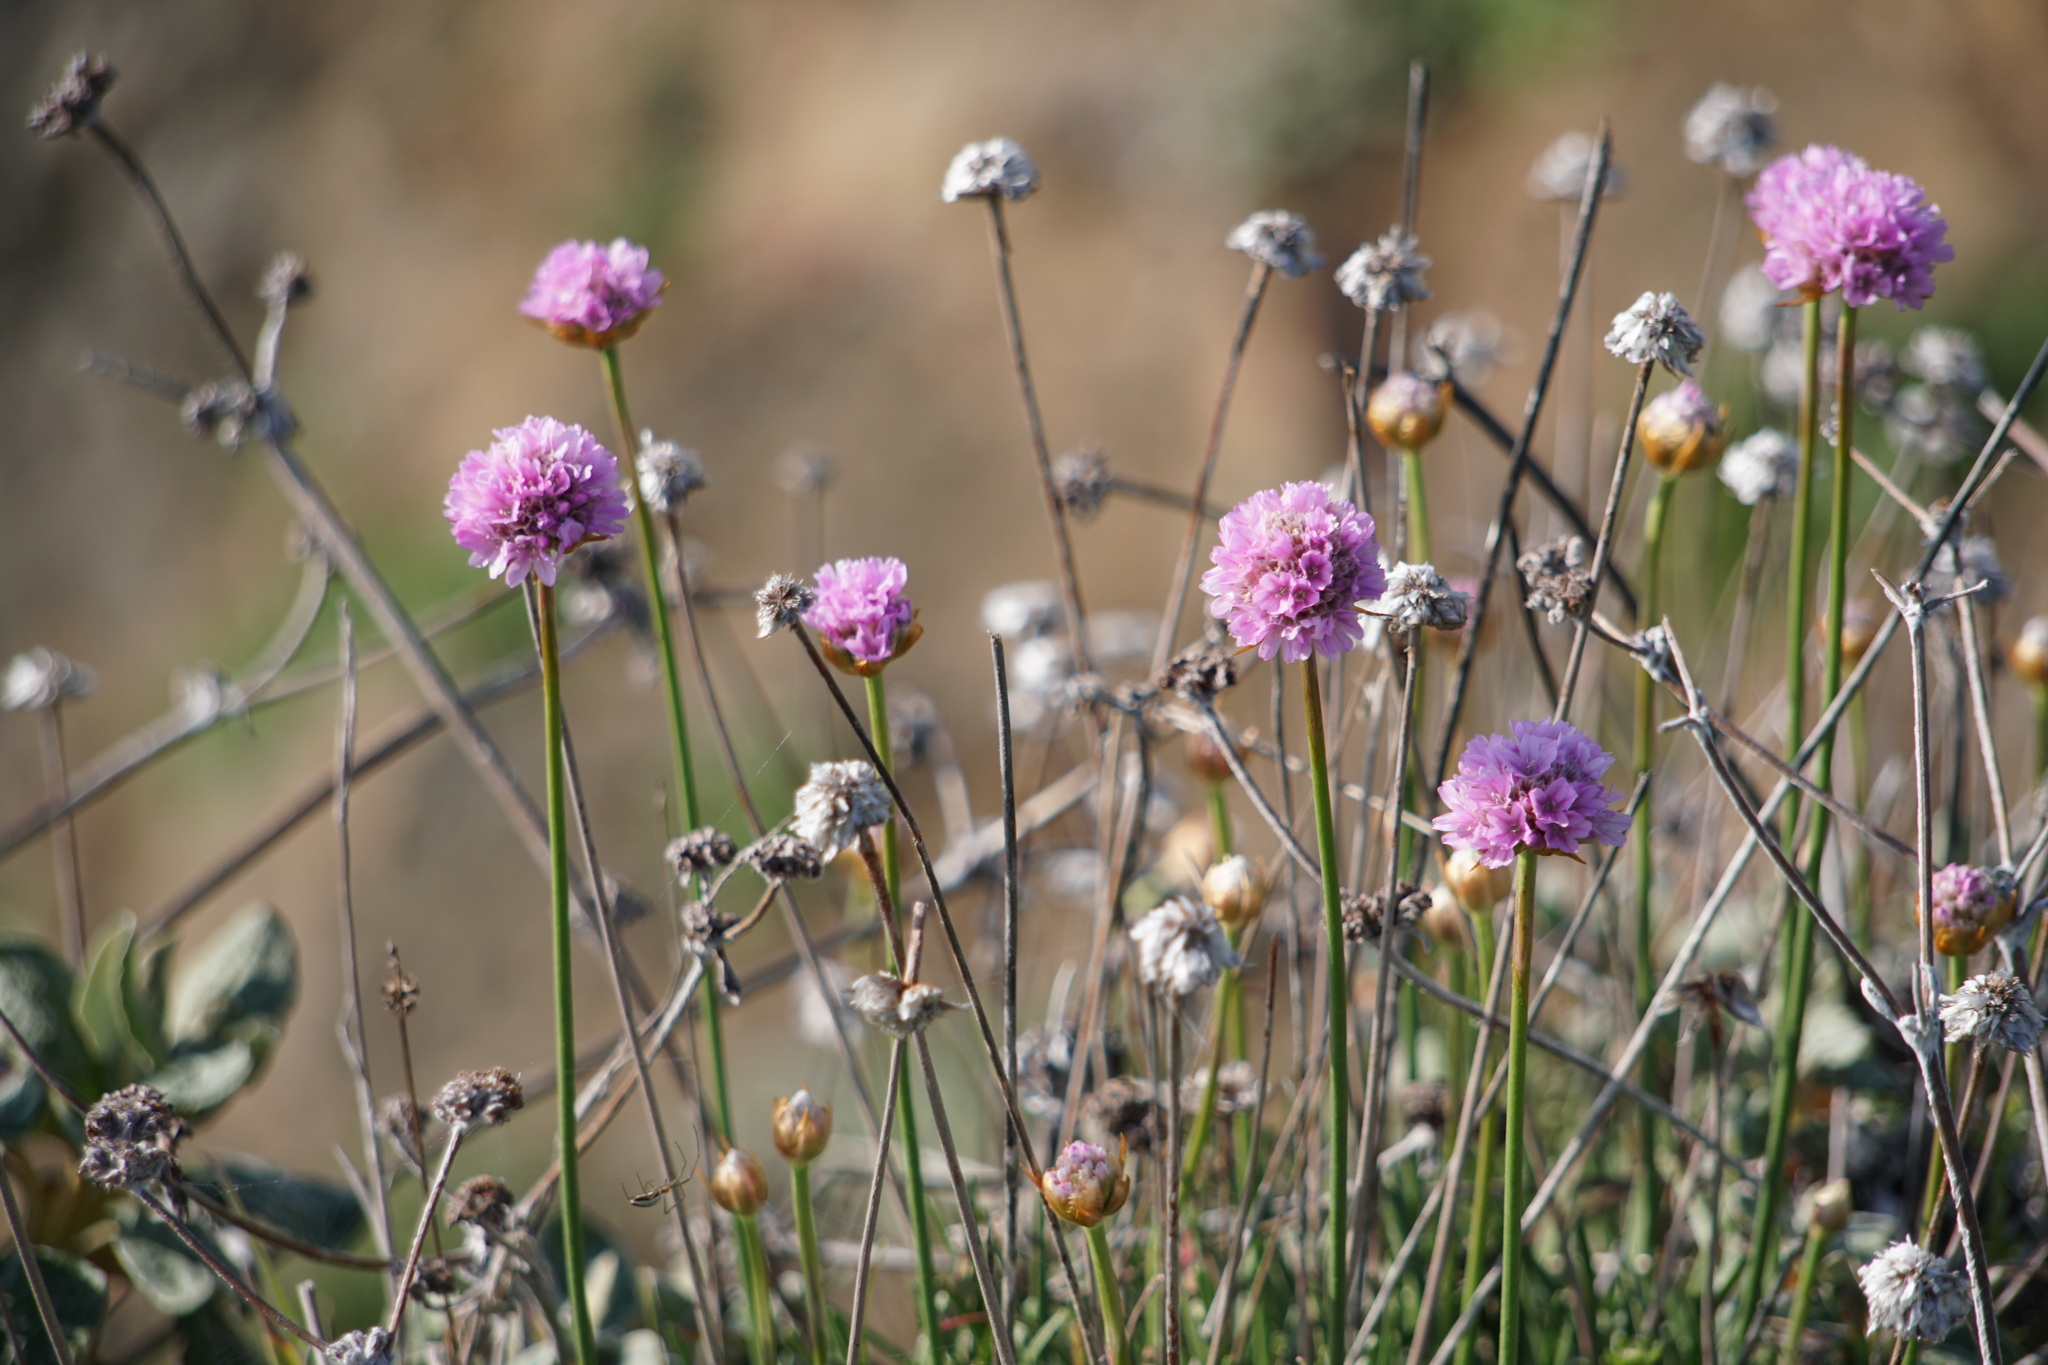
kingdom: Plantae
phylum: Tracheophyta
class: Magnoliopsida
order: Caryophyllales
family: Plumbaginaceae
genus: Armeria
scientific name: Armeria maritima
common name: Thrift
